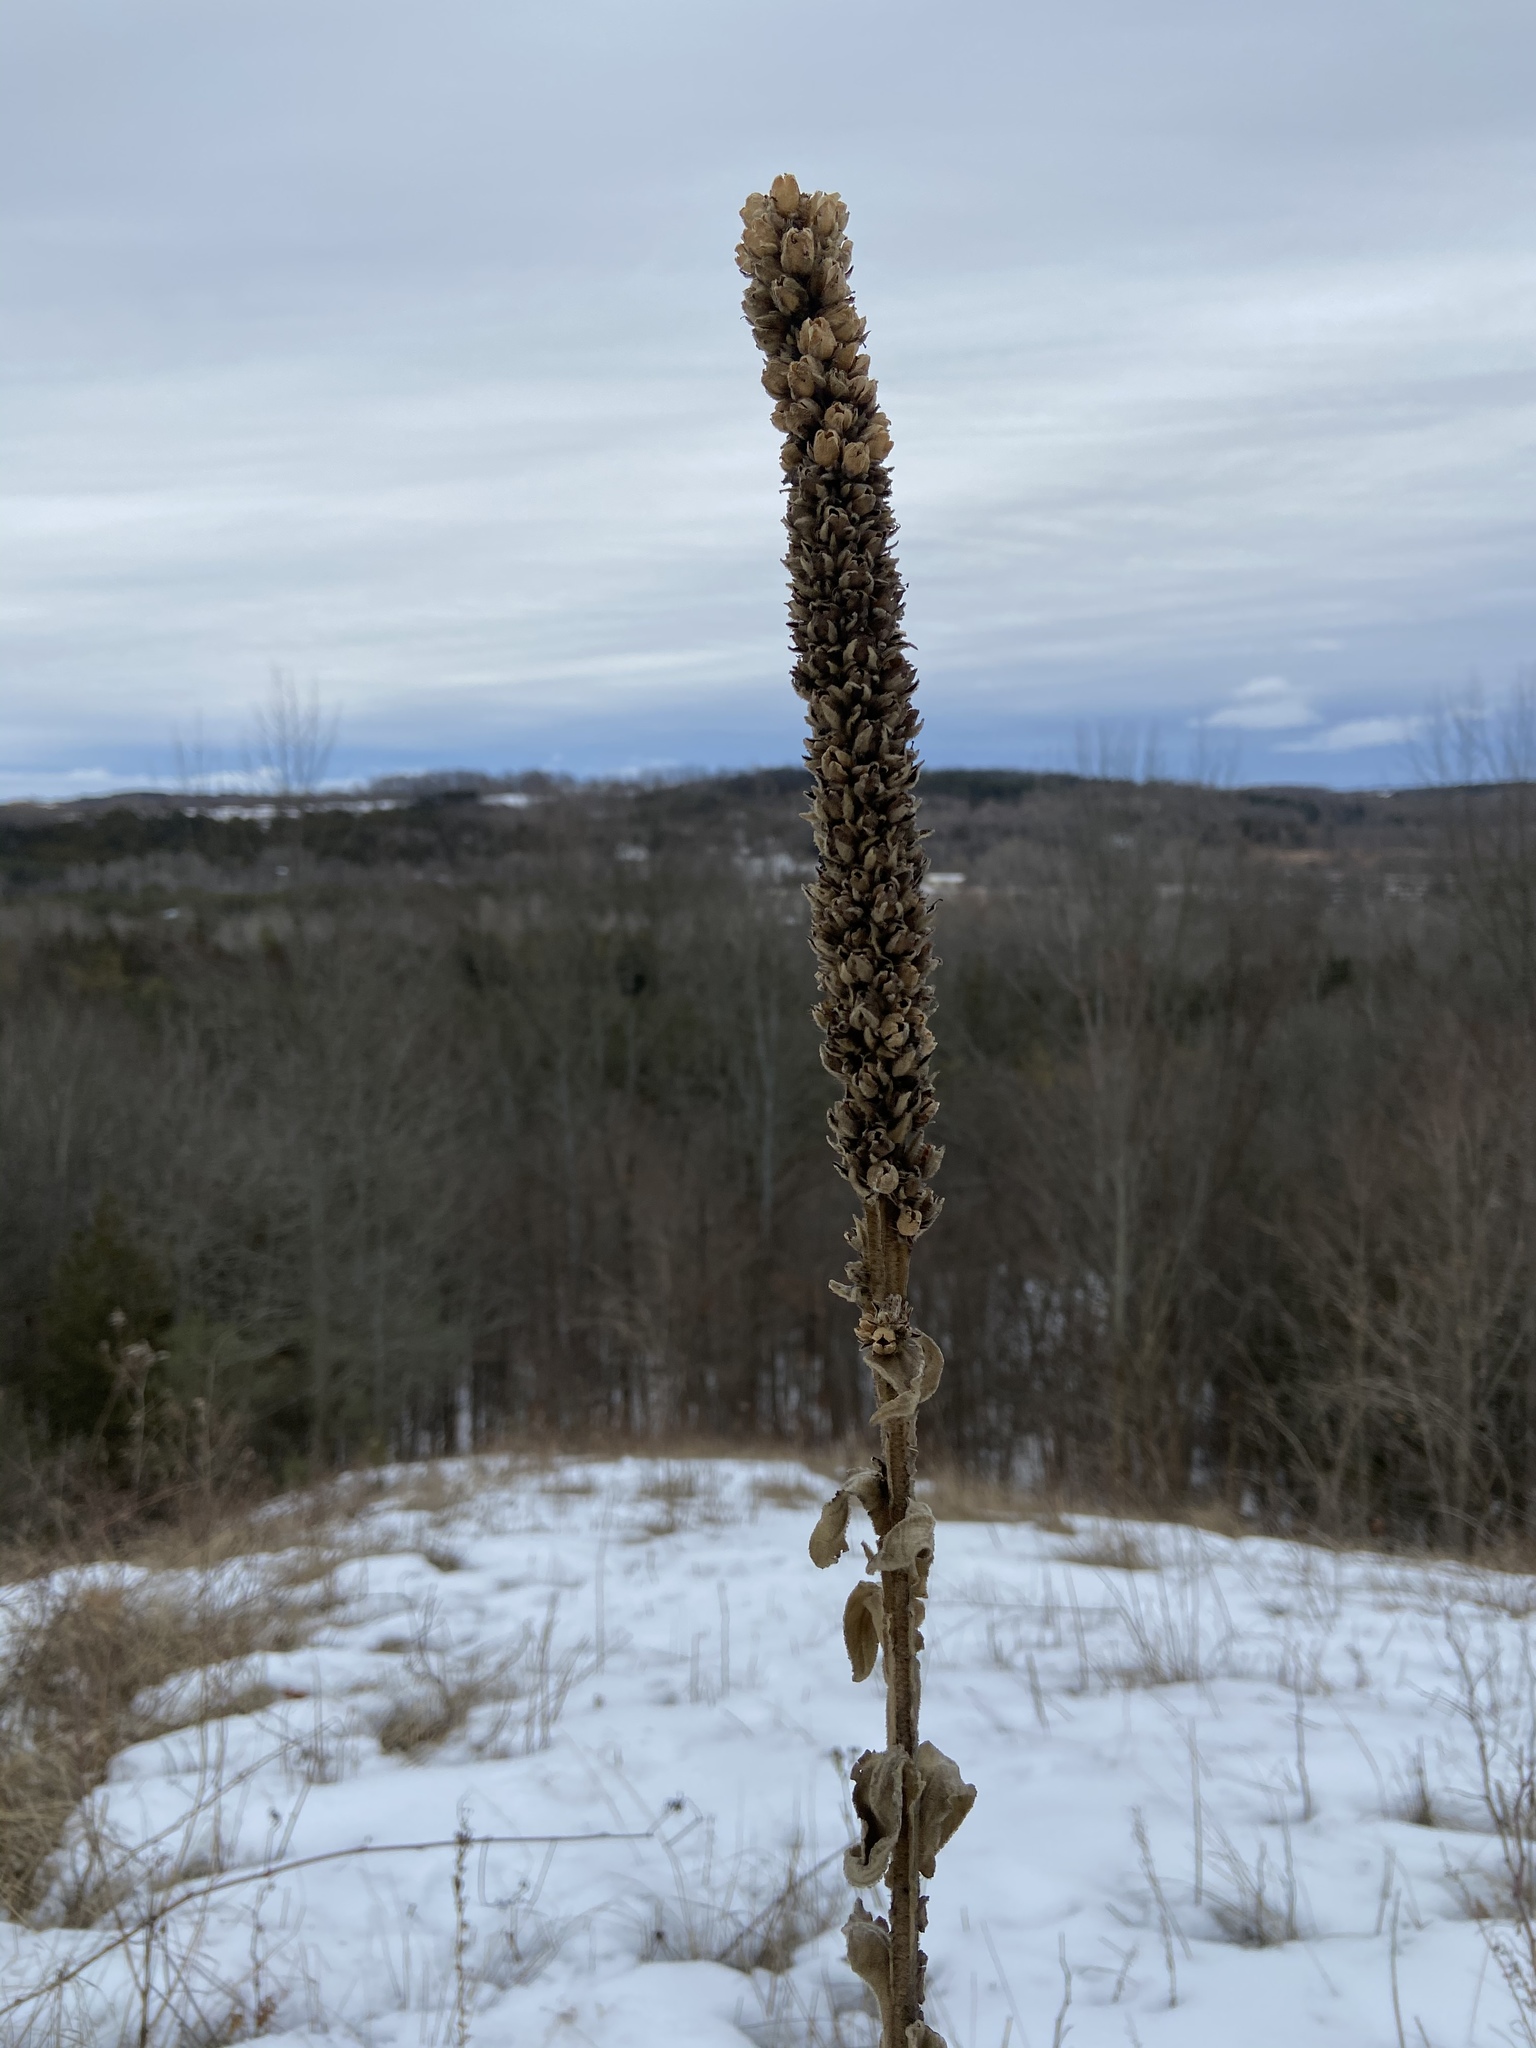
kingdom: Plantae
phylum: Tracheophyta
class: Magnoliopsida
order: Lamiales
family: Scrophulariaceae
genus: Verbascum
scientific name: Verbascum thapsus
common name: Common mullein
